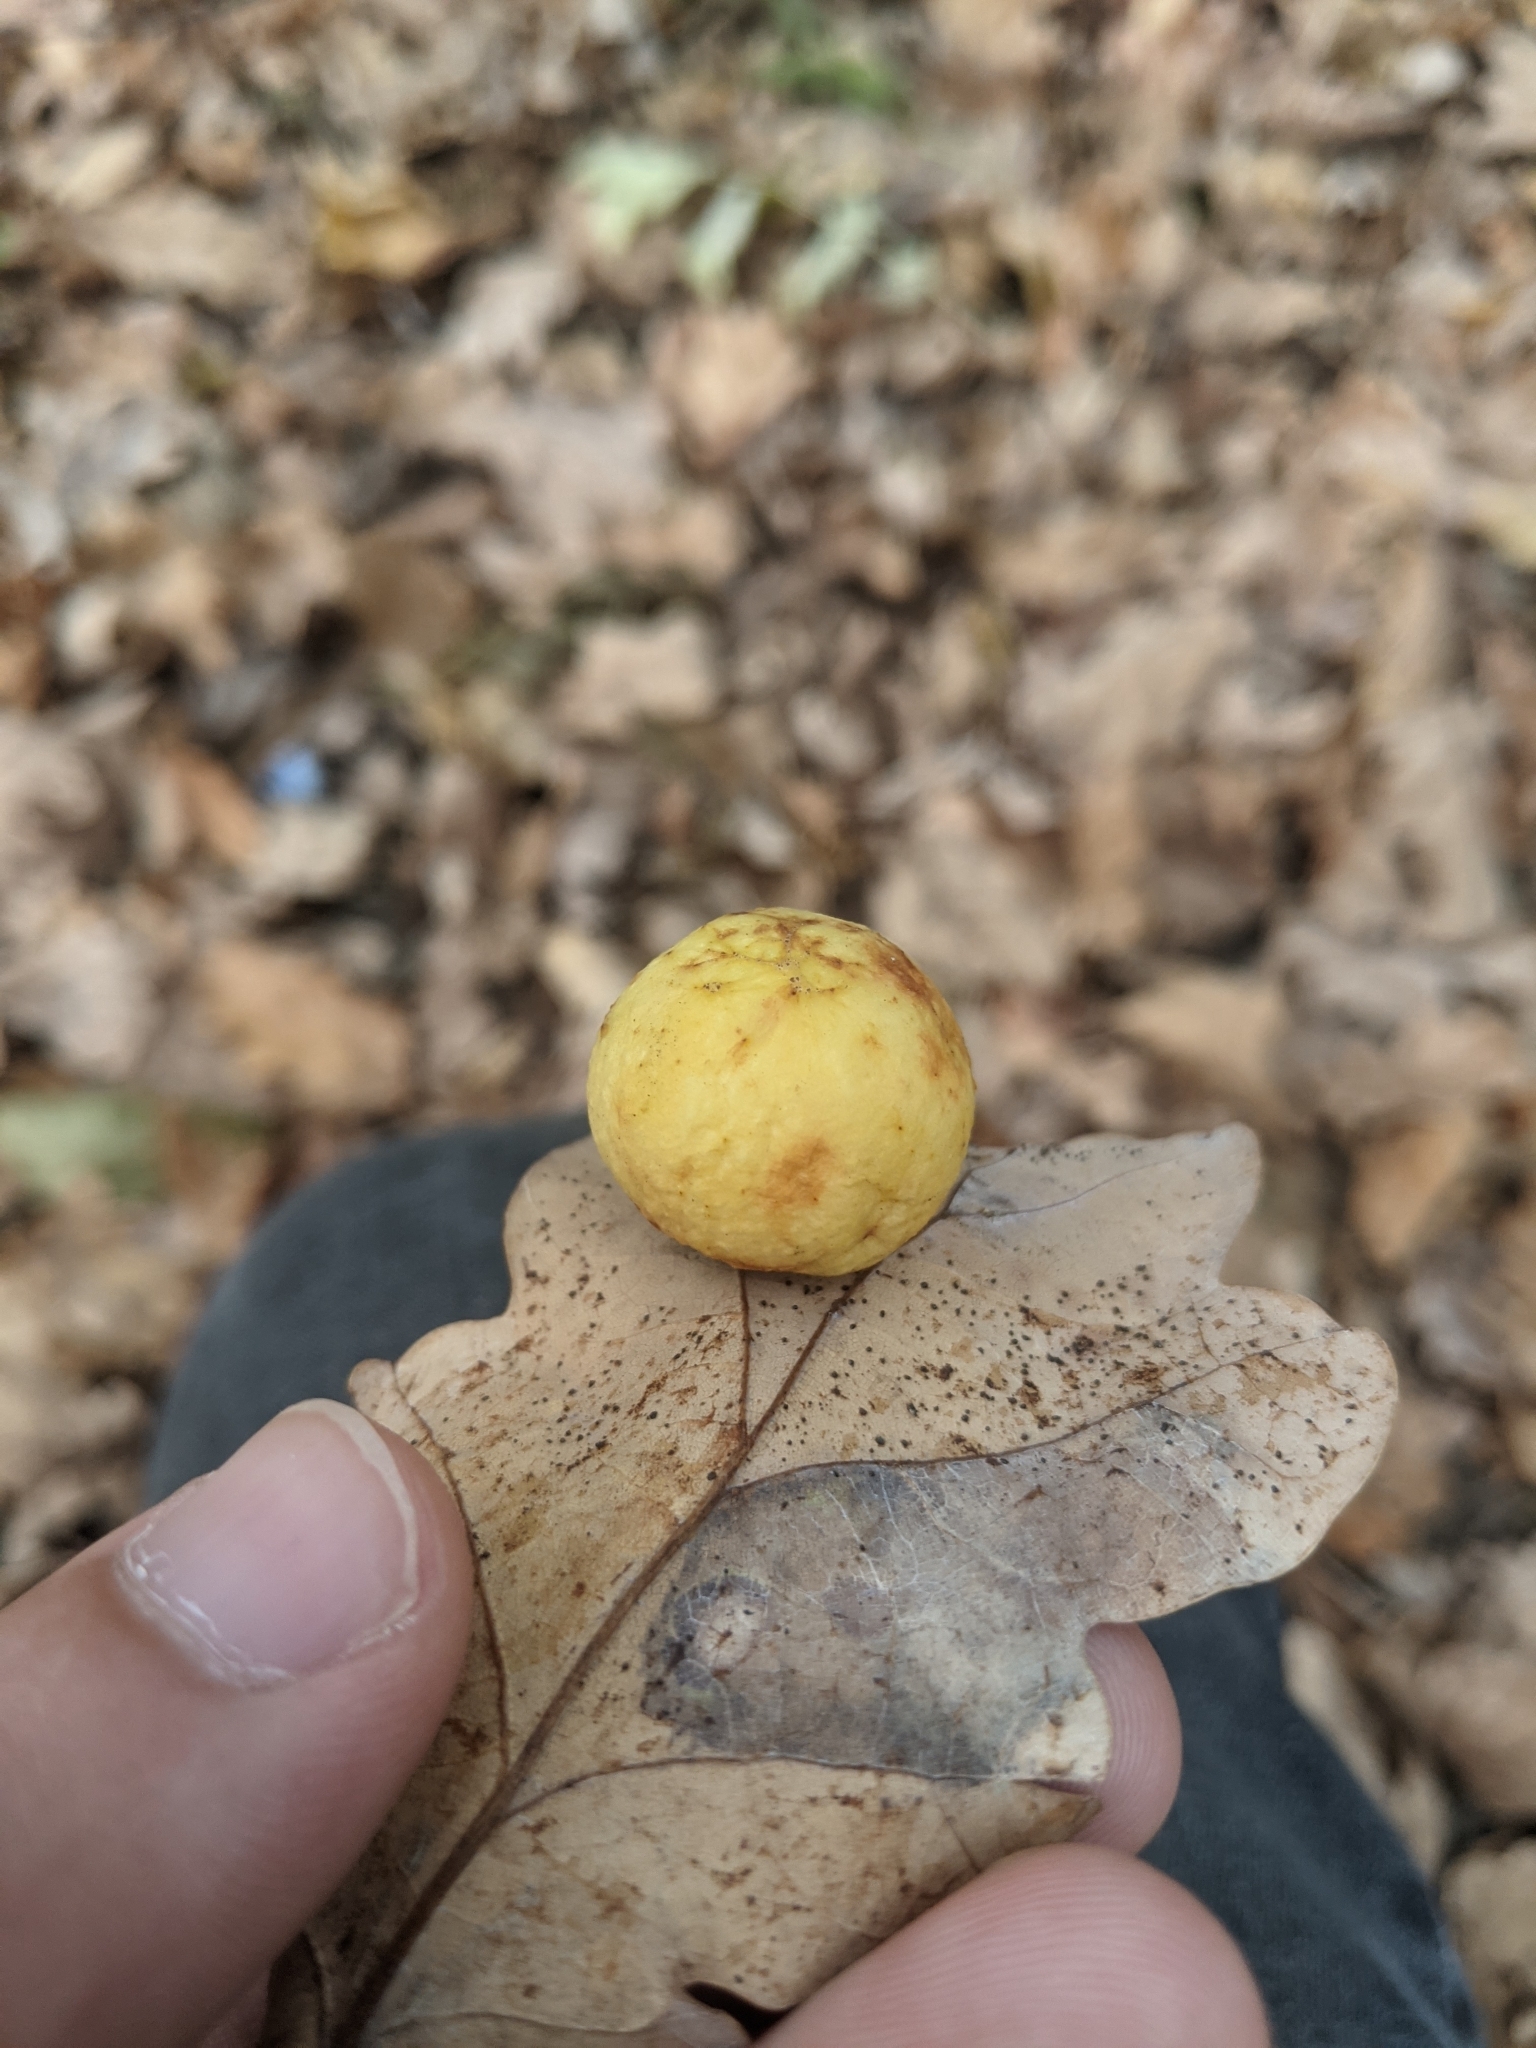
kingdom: Animalia
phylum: Arthropoda
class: Insecta
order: Hymenoptera
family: Cynipidae
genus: Cynips
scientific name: Cynips quercusfolii
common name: Cherry gall
